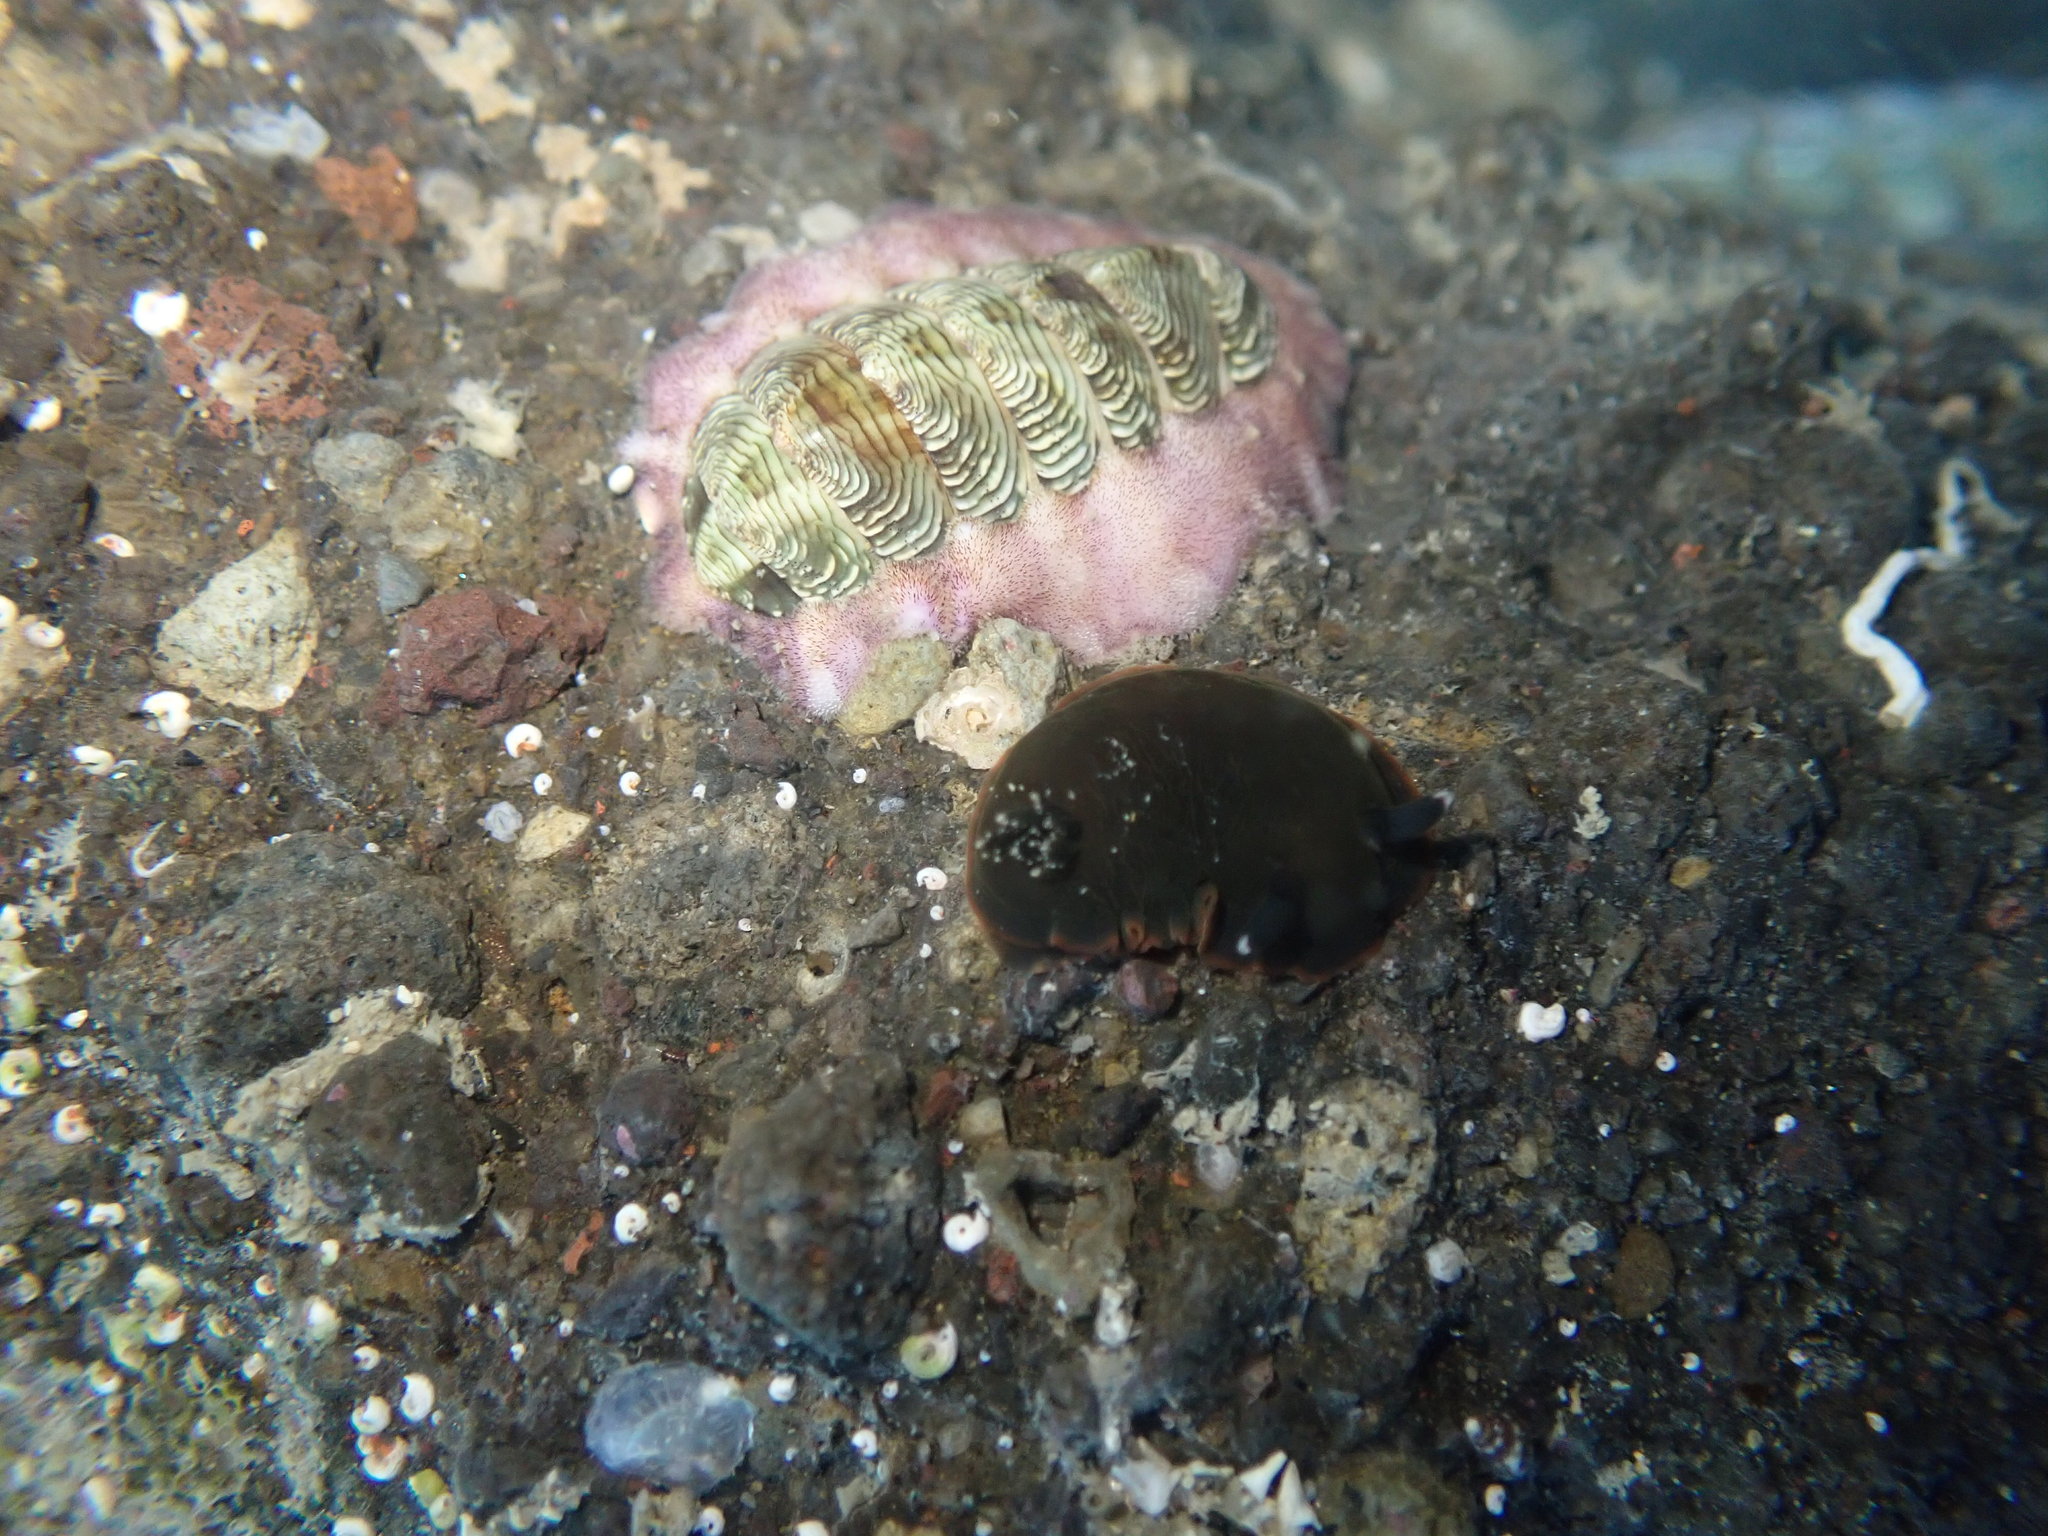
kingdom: Animalia
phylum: Mollusca
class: Gastropoda
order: Nudibranchia
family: Dendrodorididae
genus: Dendrodoris
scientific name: Dendrodoris nigra
